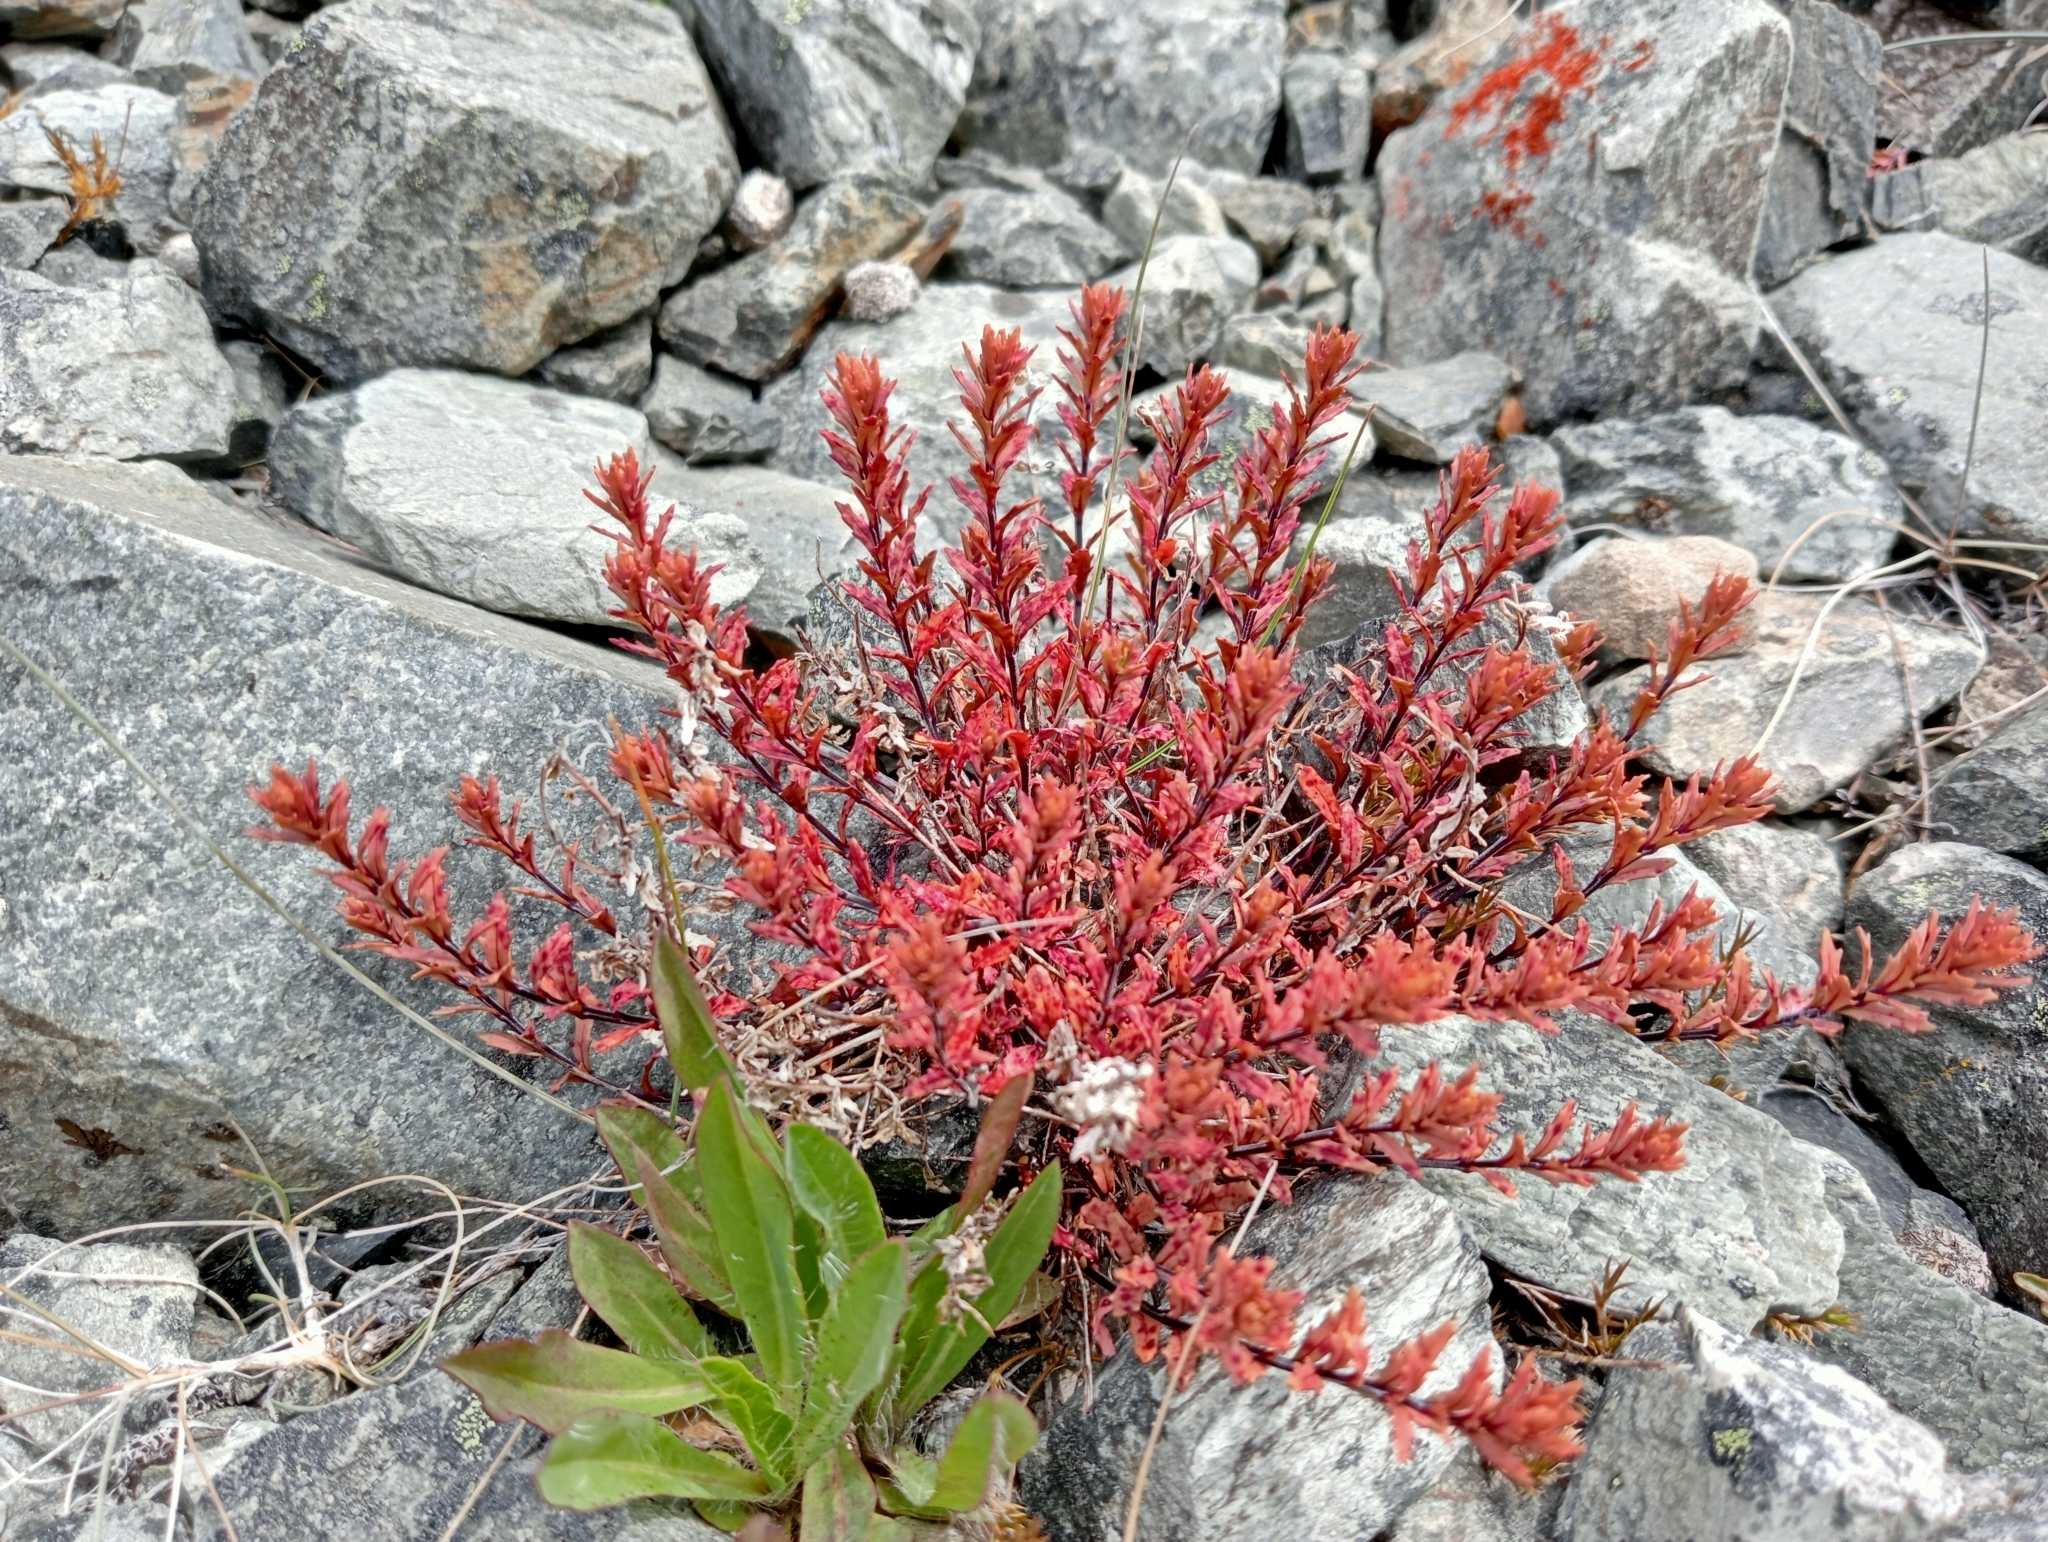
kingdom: Plantae
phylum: Tracheophyta
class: Magnoliopsida
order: Myrtales
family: Onagraceae
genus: Epilobium
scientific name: Epilobium melanocaulon
